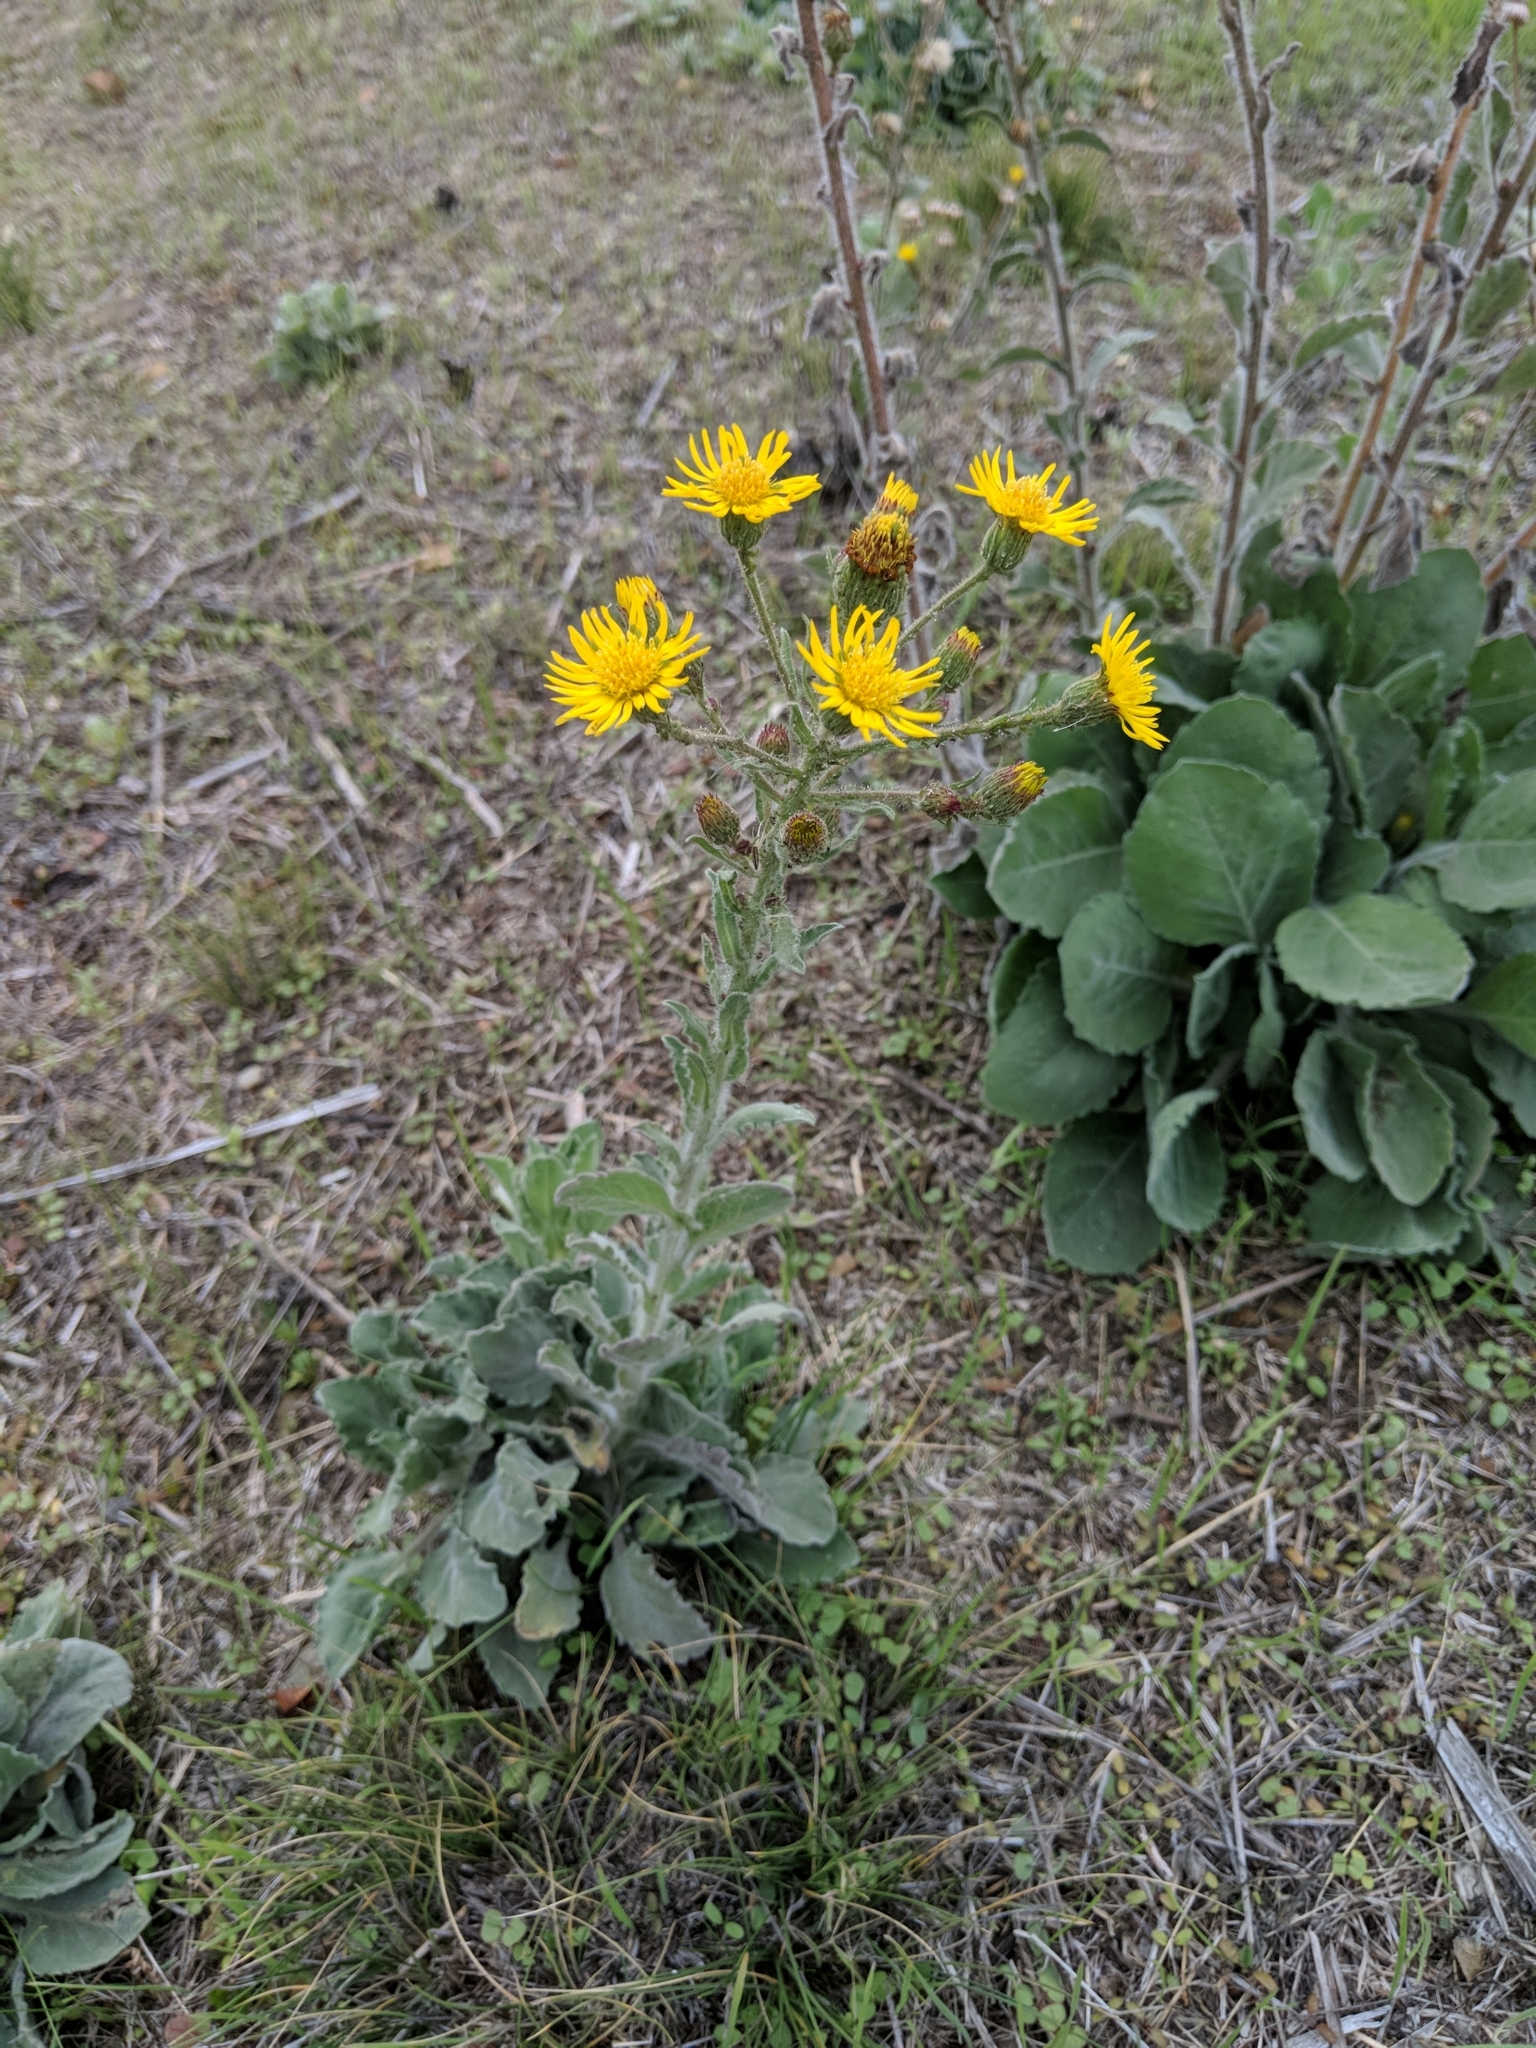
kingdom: Plantae
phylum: Tracheophyta
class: Magnoliopsida
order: Asterales
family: Asteraceae
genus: Heterotheca
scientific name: Heterotheca grandiflora
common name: Telegraphweed
